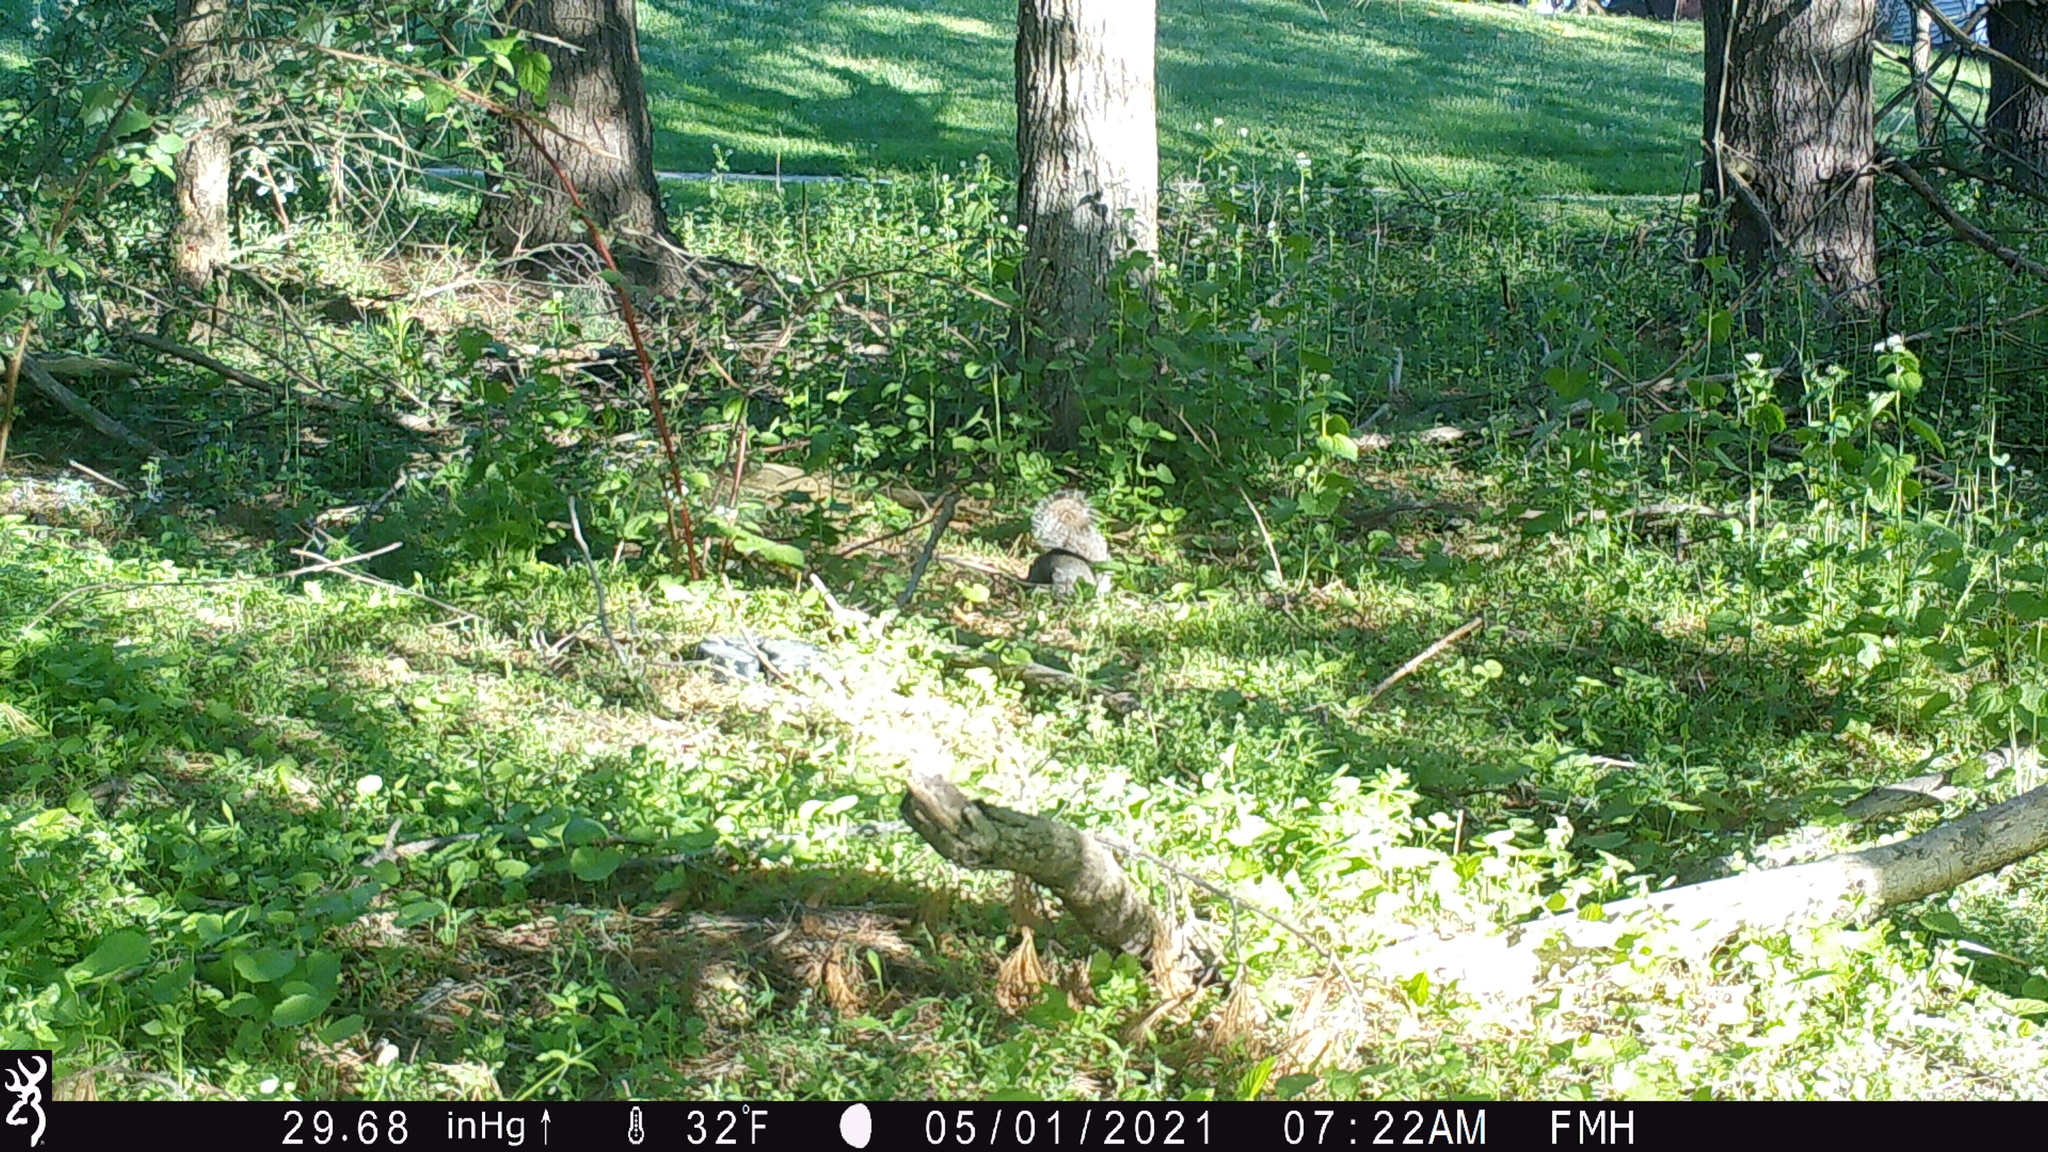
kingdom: Animalia
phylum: Chordata
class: Mammalia
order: Rodentia
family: Sciuridae
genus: Sciurus
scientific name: Sciurus carolinensis
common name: Eastern gray squirrel
